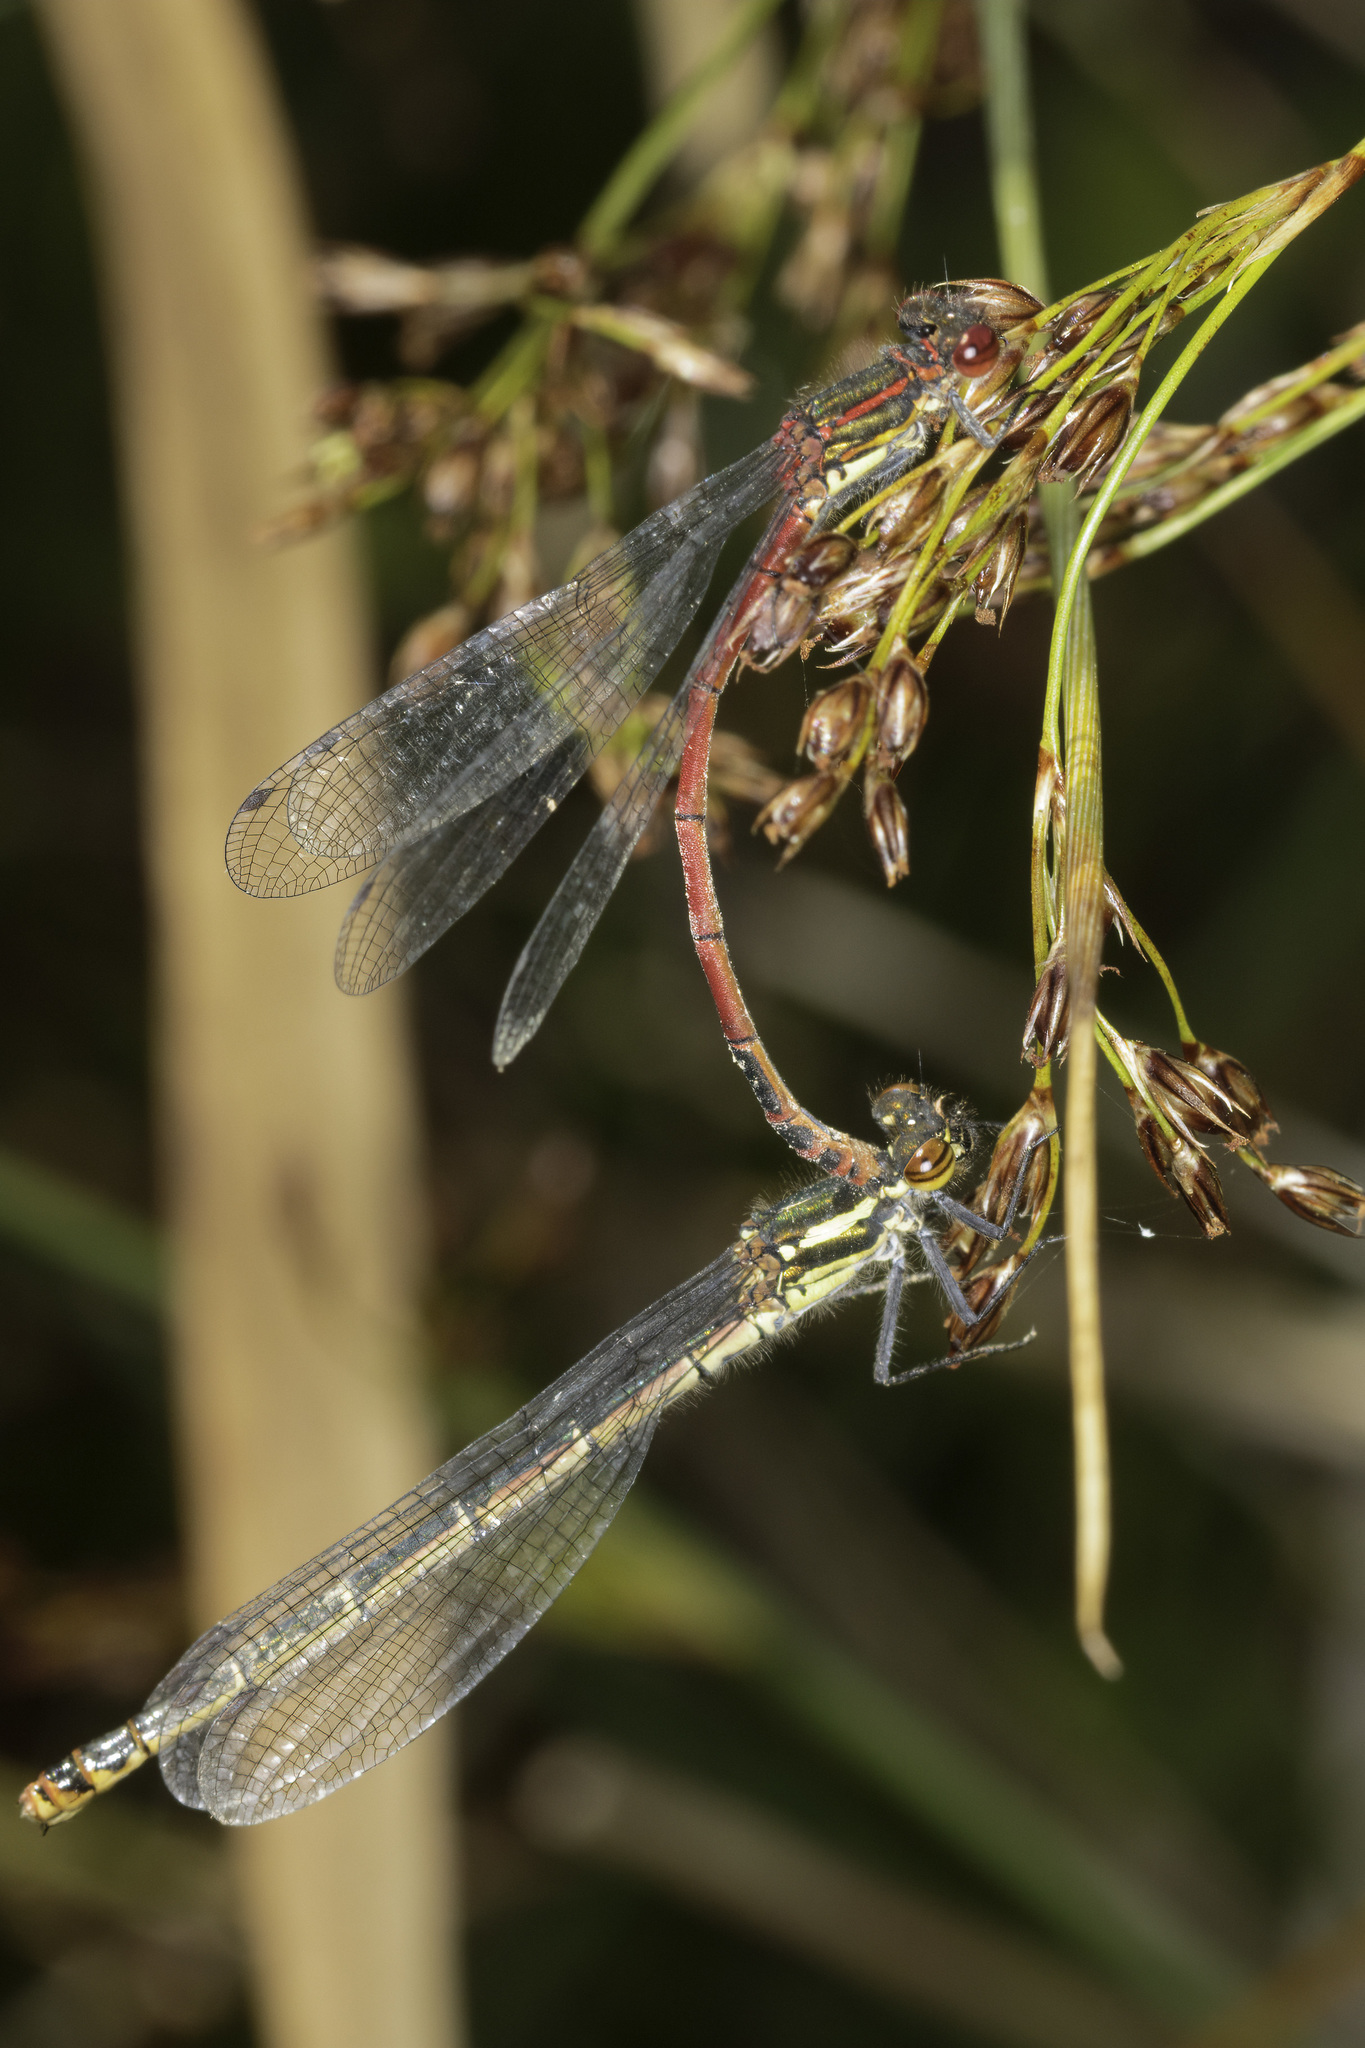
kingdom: Animalia
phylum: Arthropoda
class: Insecta
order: Odonata
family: Coenagrionidae
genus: Pyrrhosoma
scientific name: Pyrrhosoma nymphula
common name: Large red damsel
